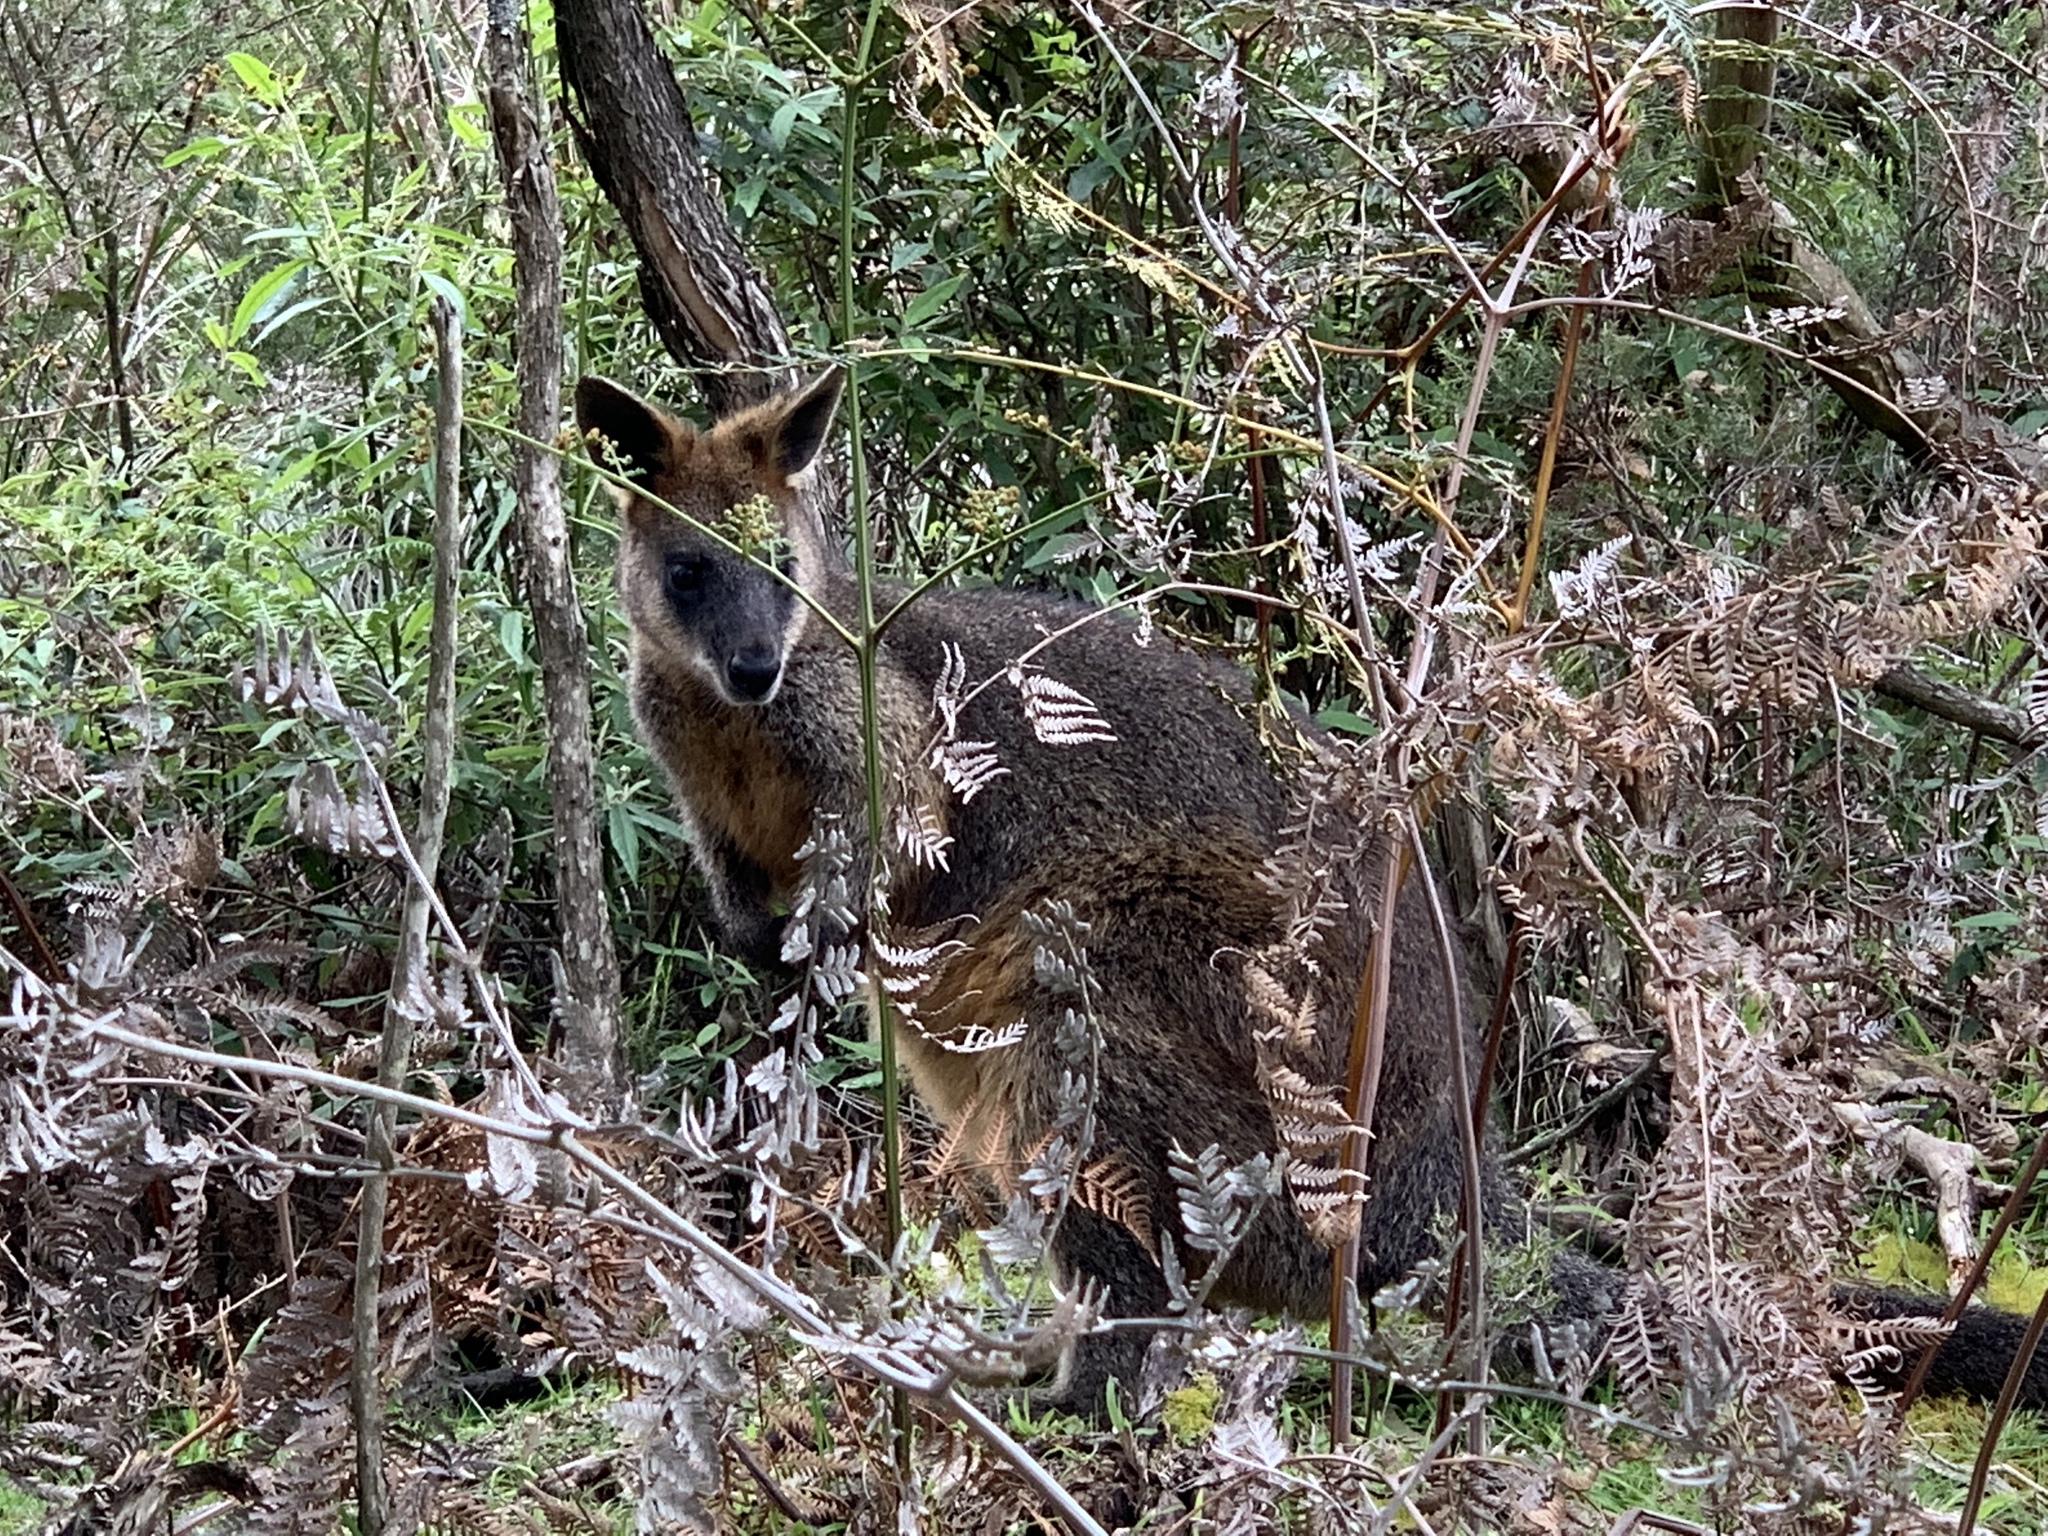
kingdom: Animalia
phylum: Chordata
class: Mammalia
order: Diprotodontia
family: Macropodidae
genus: Wallabia
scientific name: Wallabia bicolor
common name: Swamp wallaby
